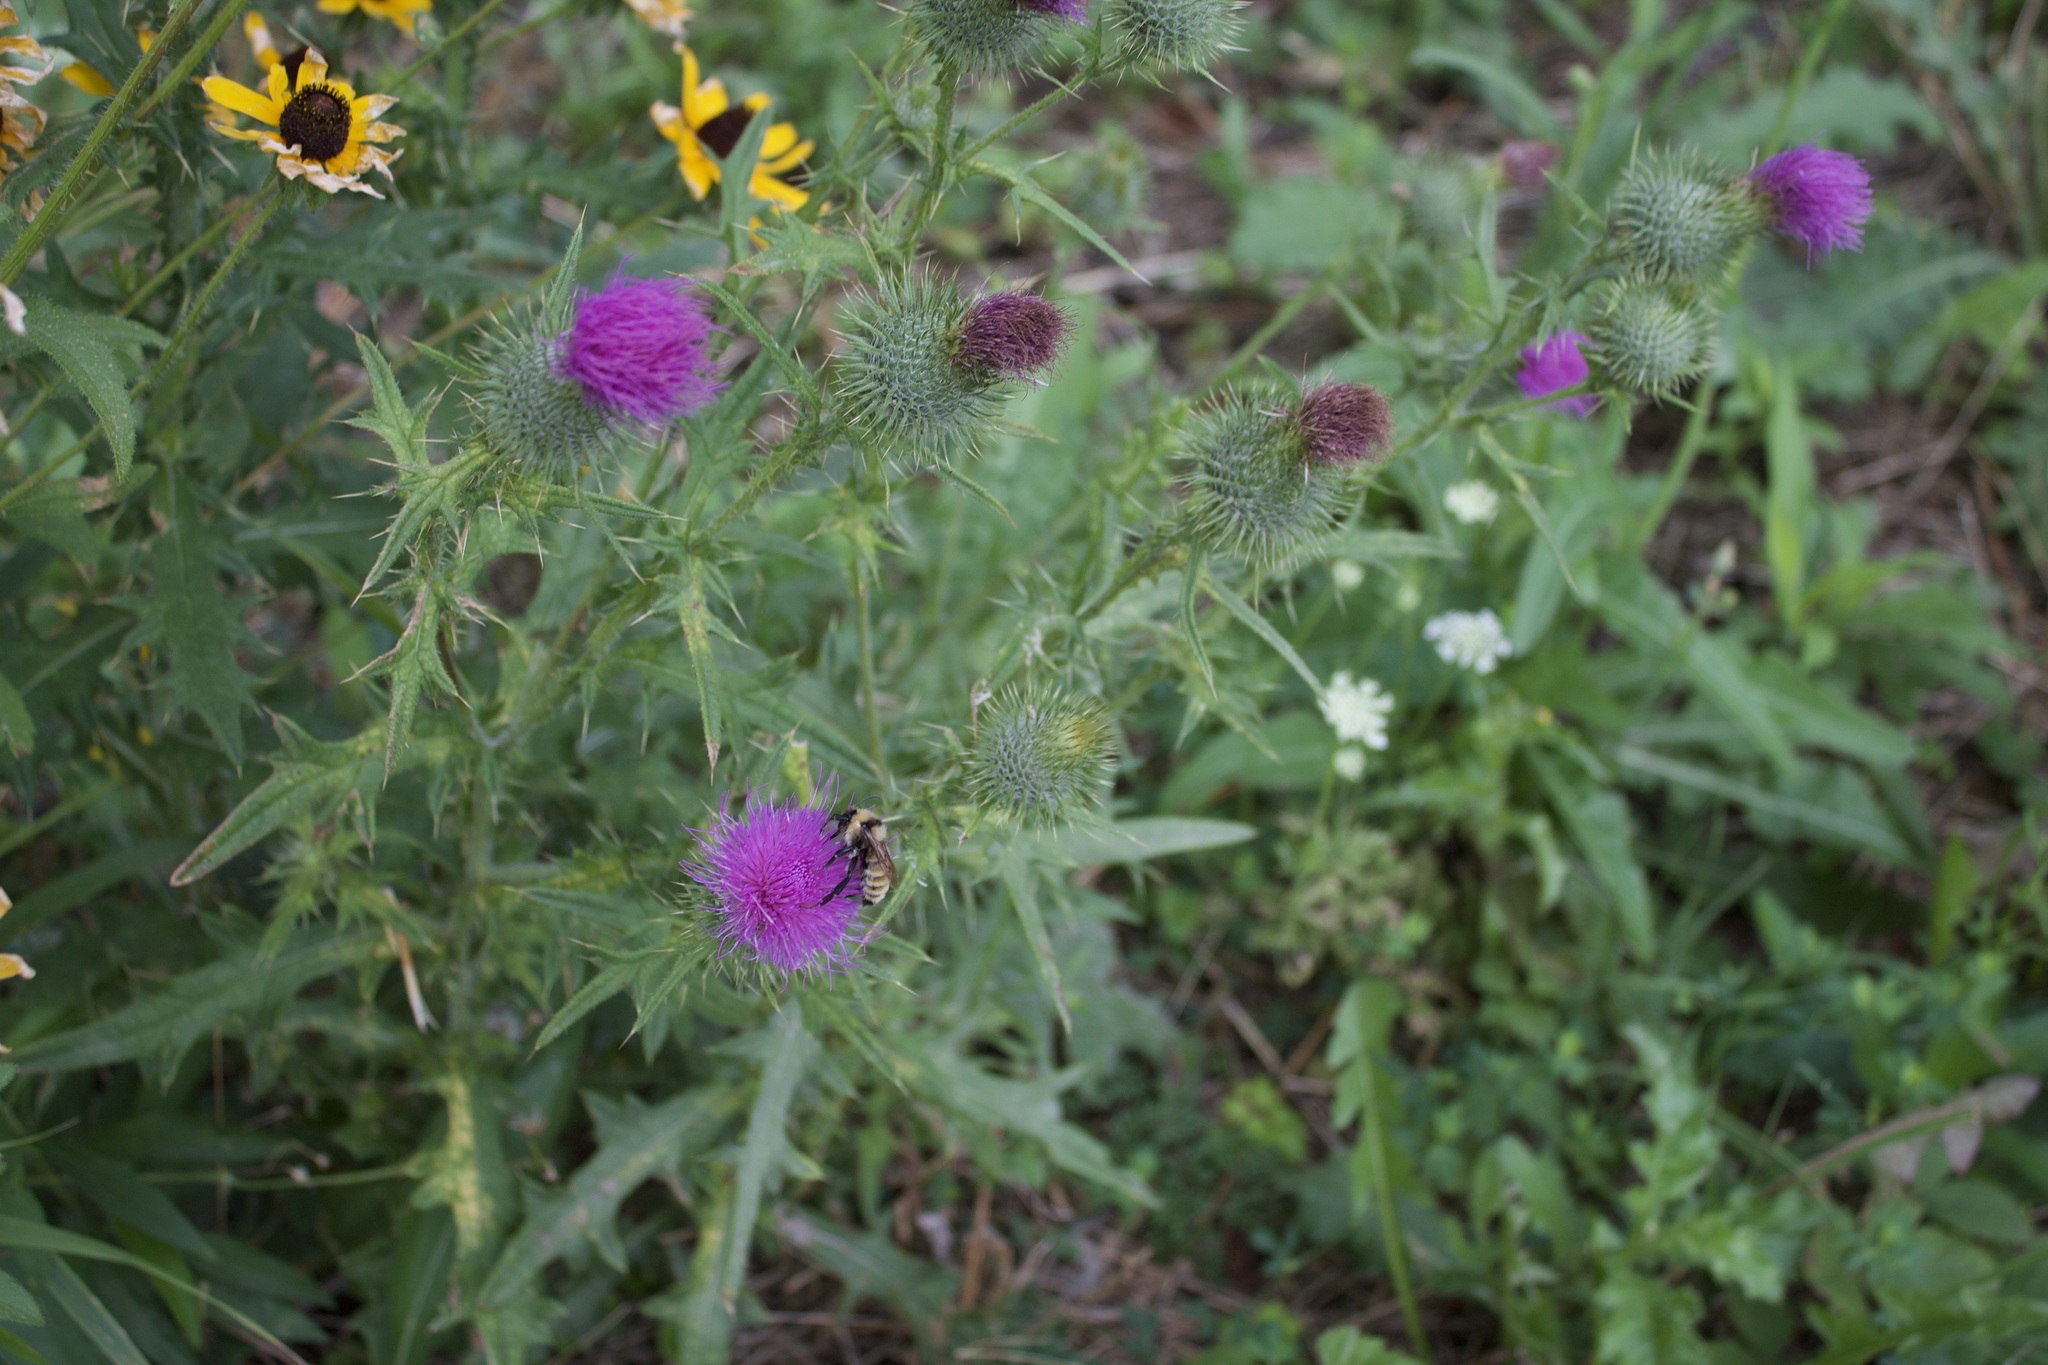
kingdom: Animalia
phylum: Arthropoda
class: Insecta
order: Hymenoptera
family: Apidae
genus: Bombus
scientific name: Bombus fervidus
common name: Yellow bumble bee
